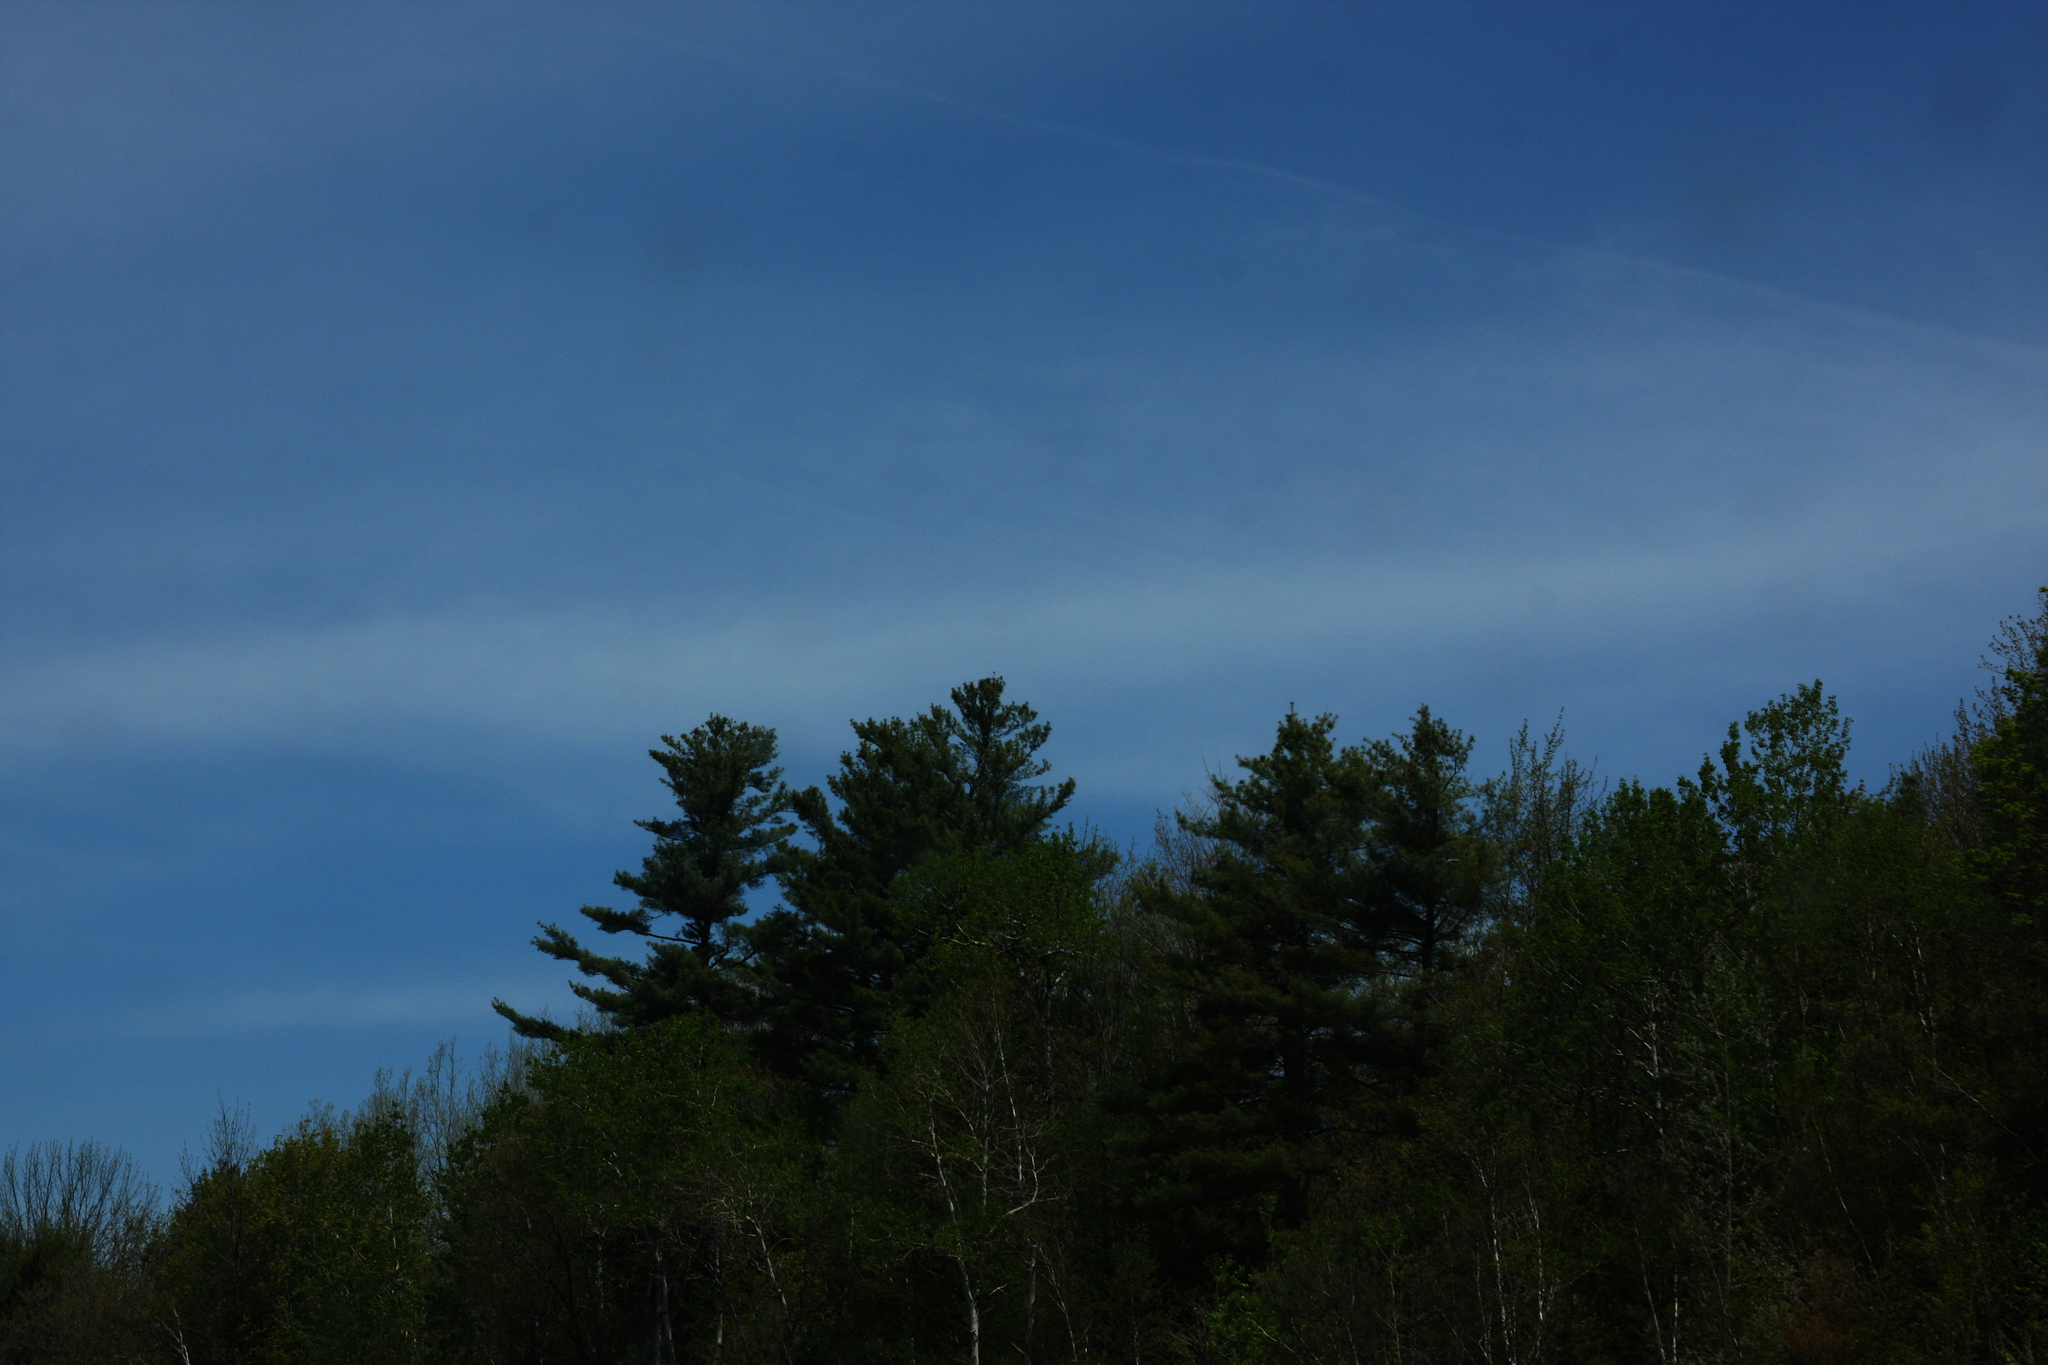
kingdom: Plantae
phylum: Tracheophyta
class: Pinopsida
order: Pinales
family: Pinaceae
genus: Pinus
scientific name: Pinus strobus
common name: Weymouth pine
